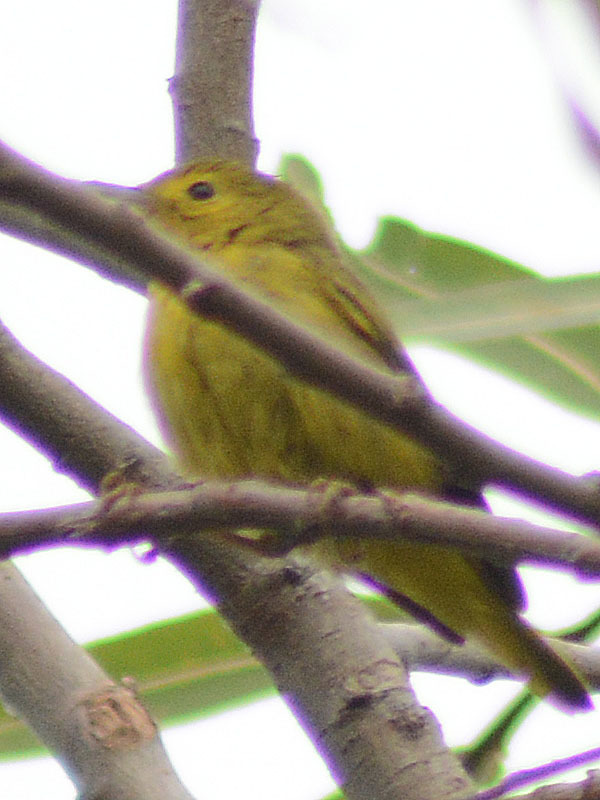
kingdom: Animalia
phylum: Chordata
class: Aves
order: Passeriformes
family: Parulidae
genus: Setophaga
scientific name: Setophaga petechia
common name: Yellow warbler
